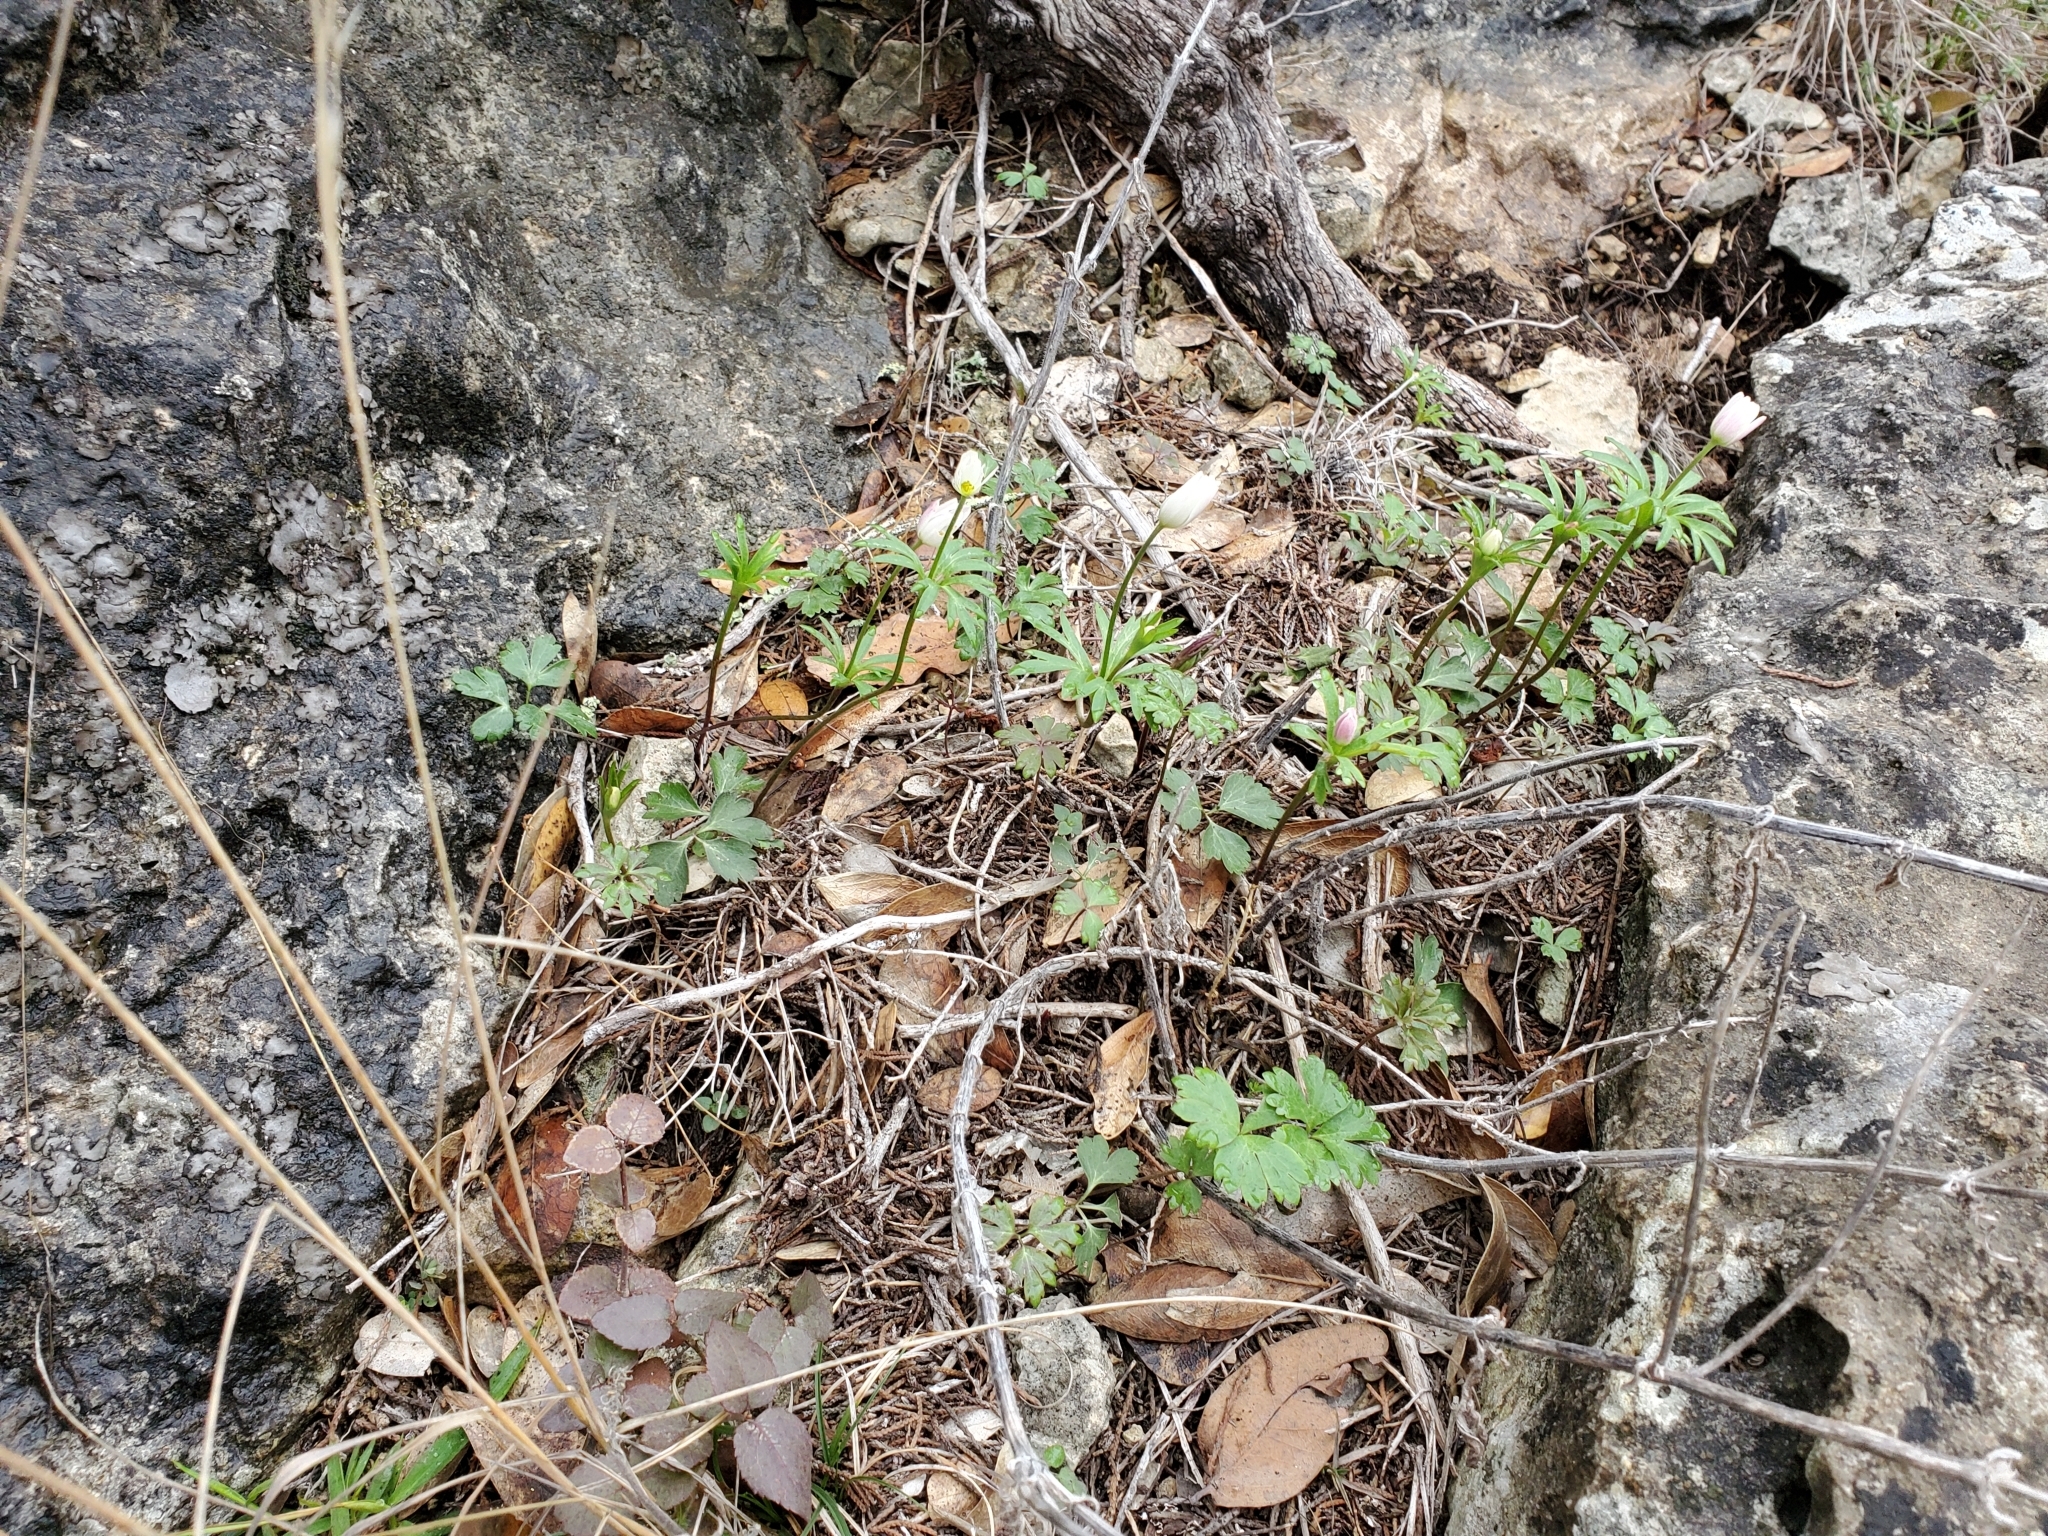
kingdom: Plantae
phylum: Tracheophyta
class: Magnoliopsida
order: Ranunculales
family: Ranunculaceae
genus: Anemone
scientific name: Anemone edwardsiana
